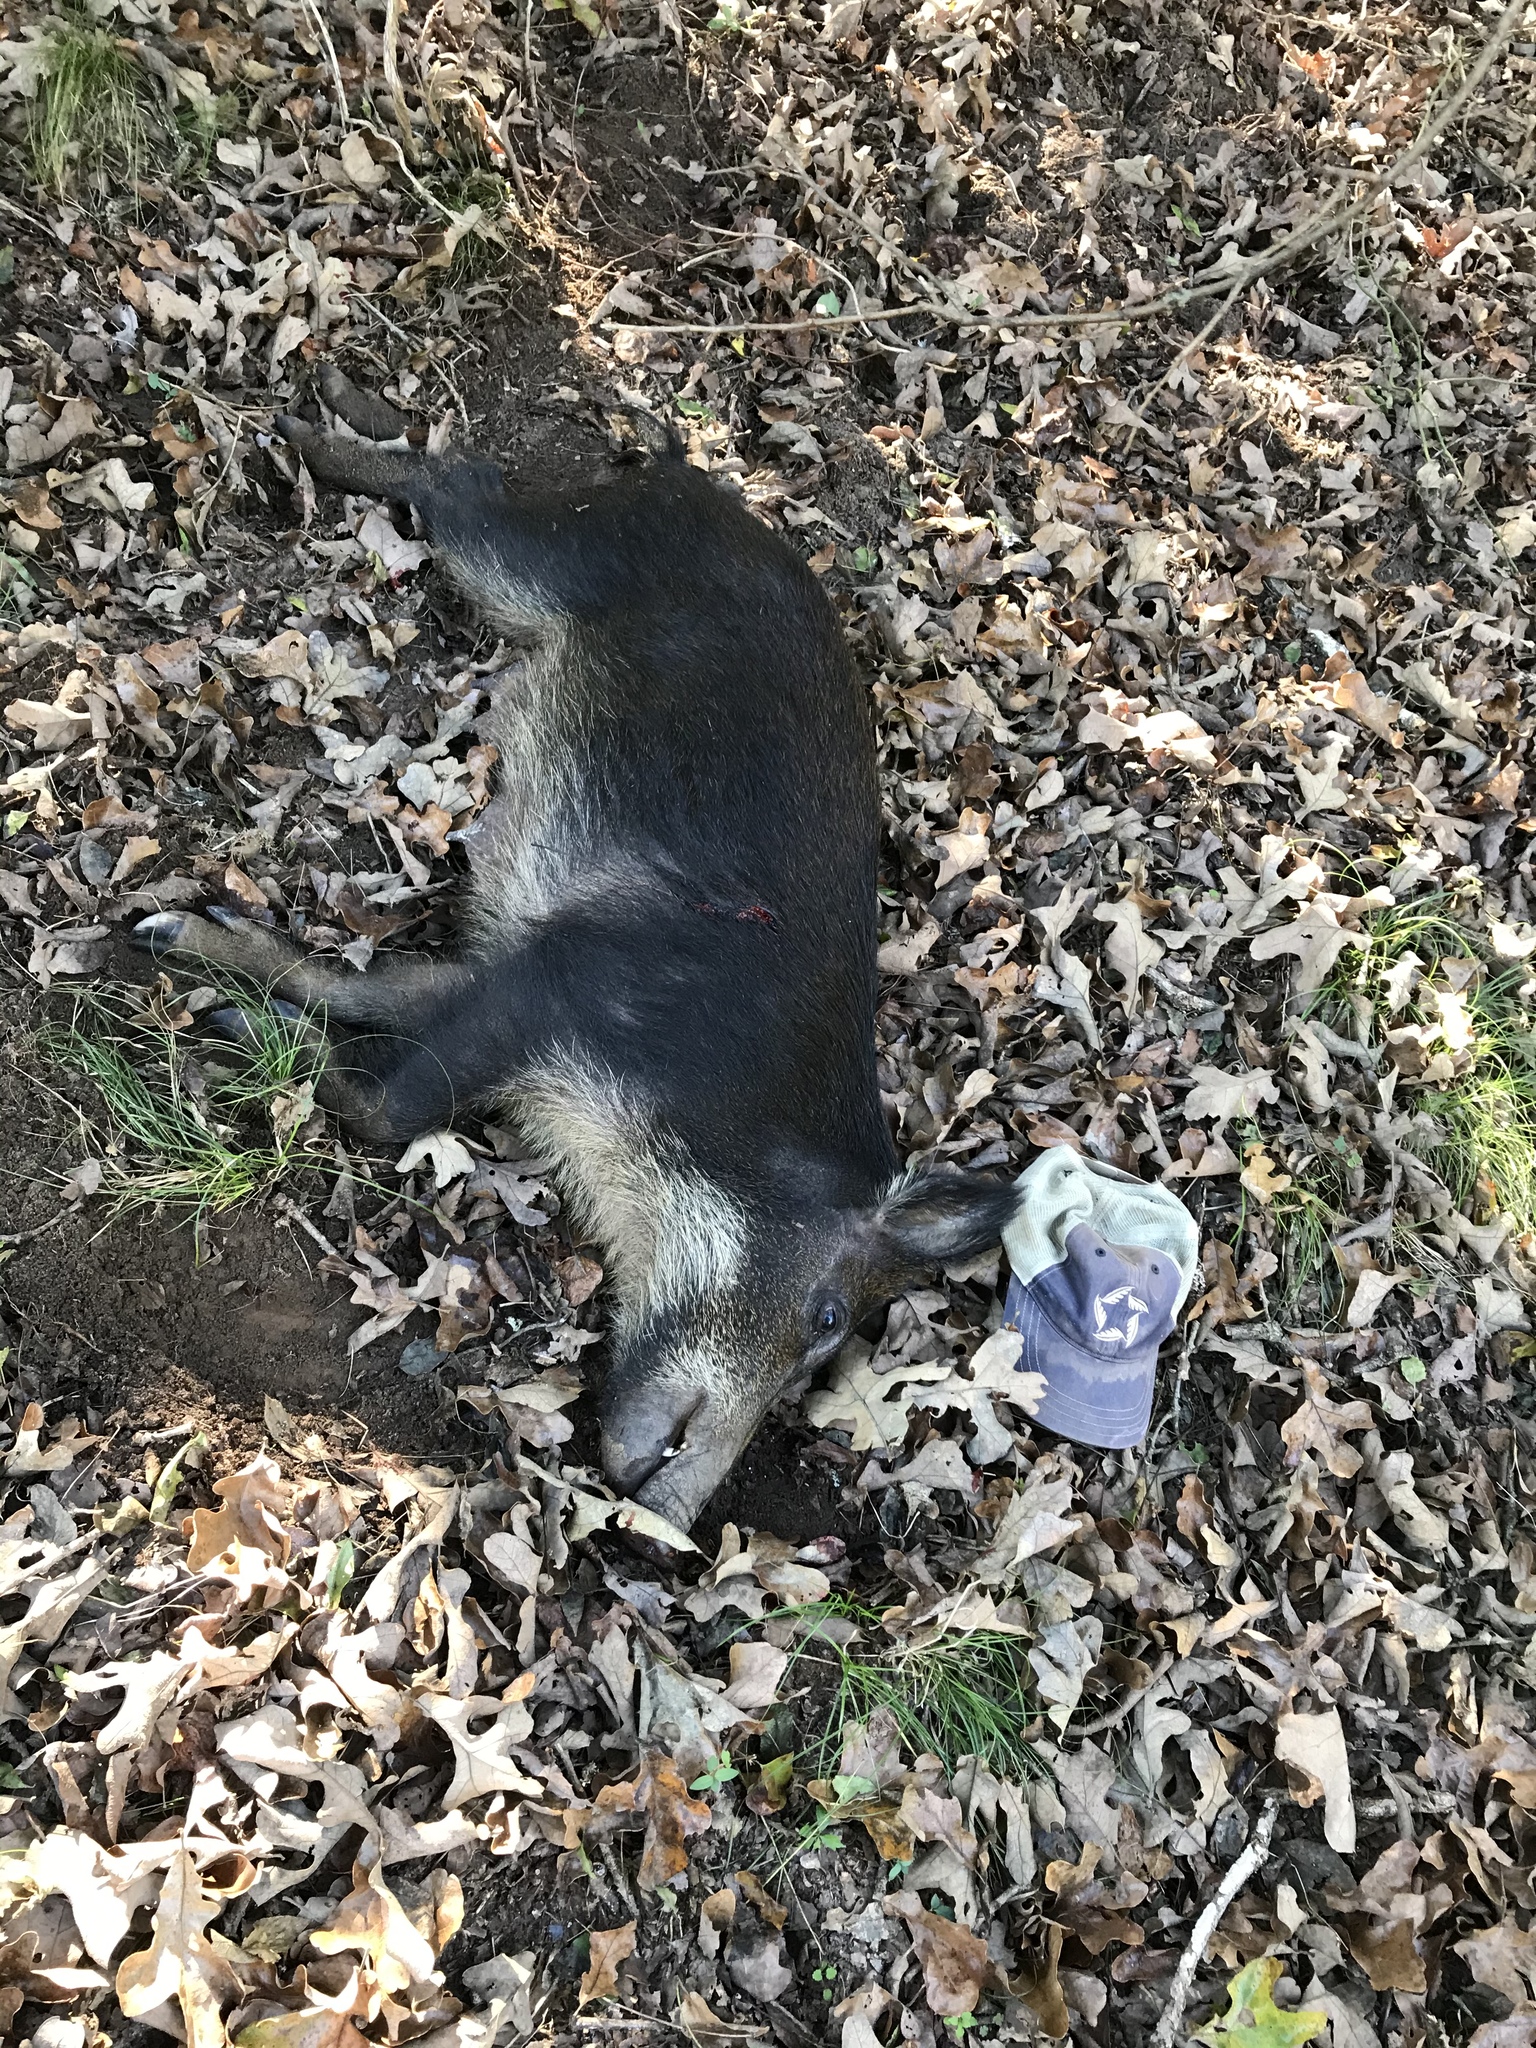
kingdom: Animalia
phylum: Chordata
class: Mammalia
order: Artiodactyla
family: Suidae
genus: Sus
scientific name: Sus scrofa
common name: Wild boar
